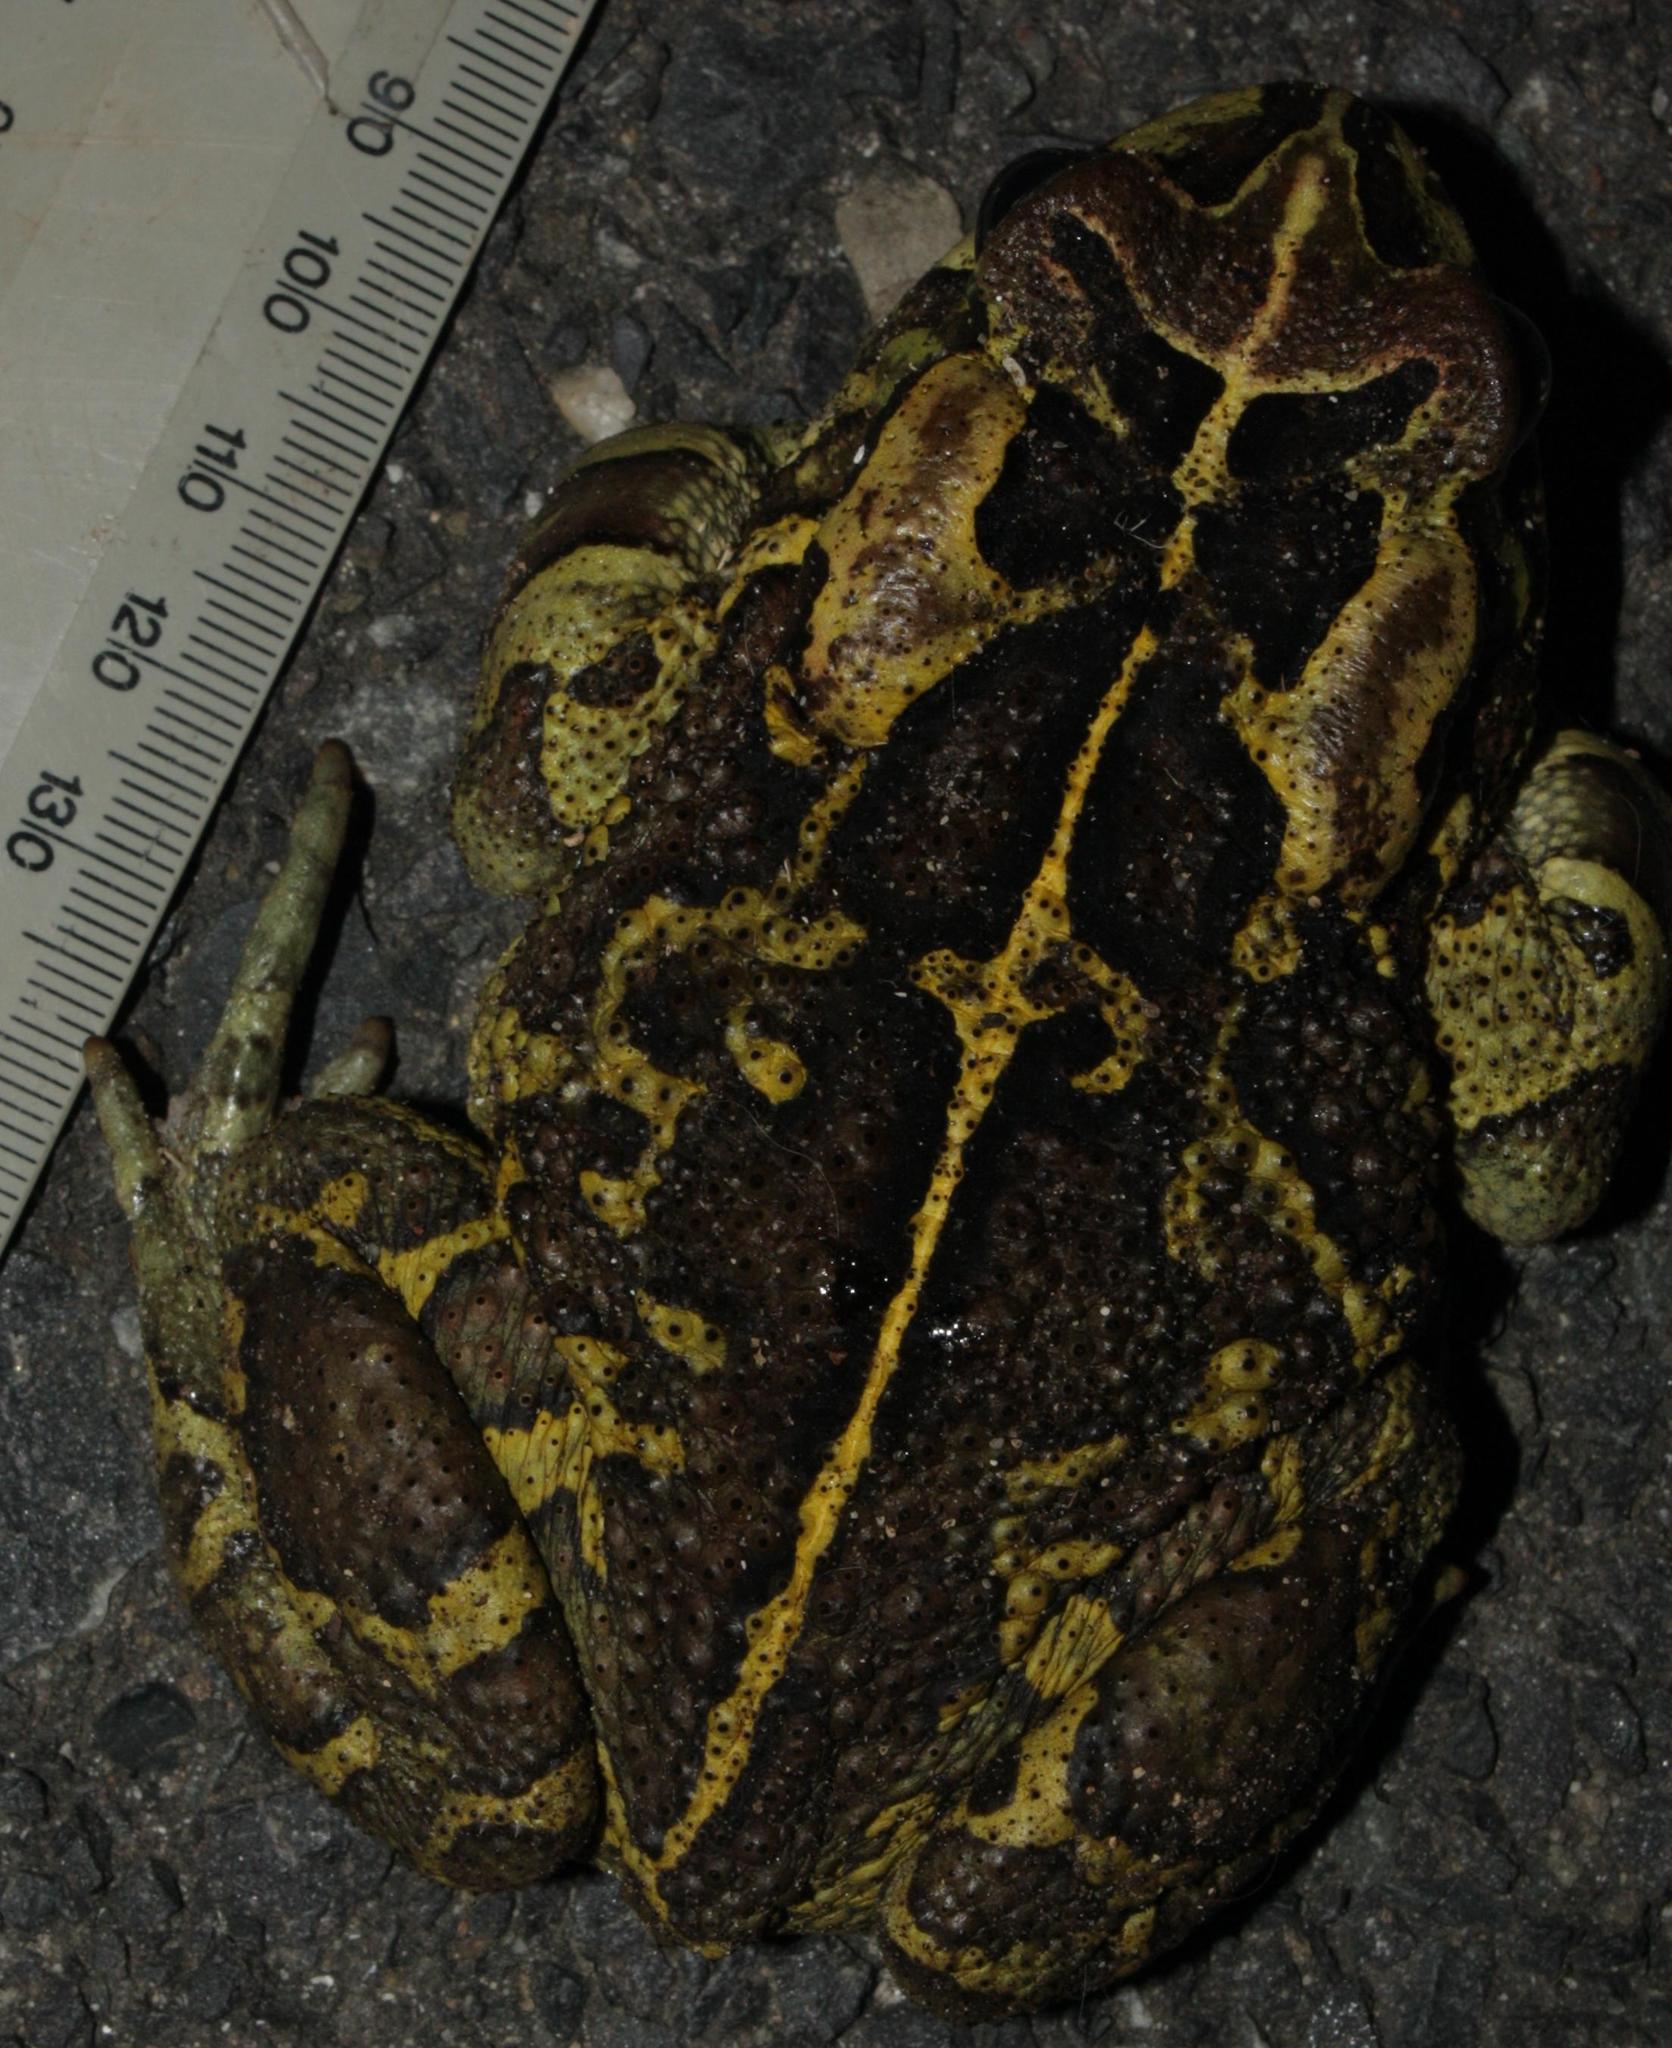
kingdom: Animalia
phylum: Chordata
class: Amphibia
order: Anura
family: Bufonidae
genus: Sclerophrys
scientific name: Sclerophrys pantherina
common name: Panther toad
